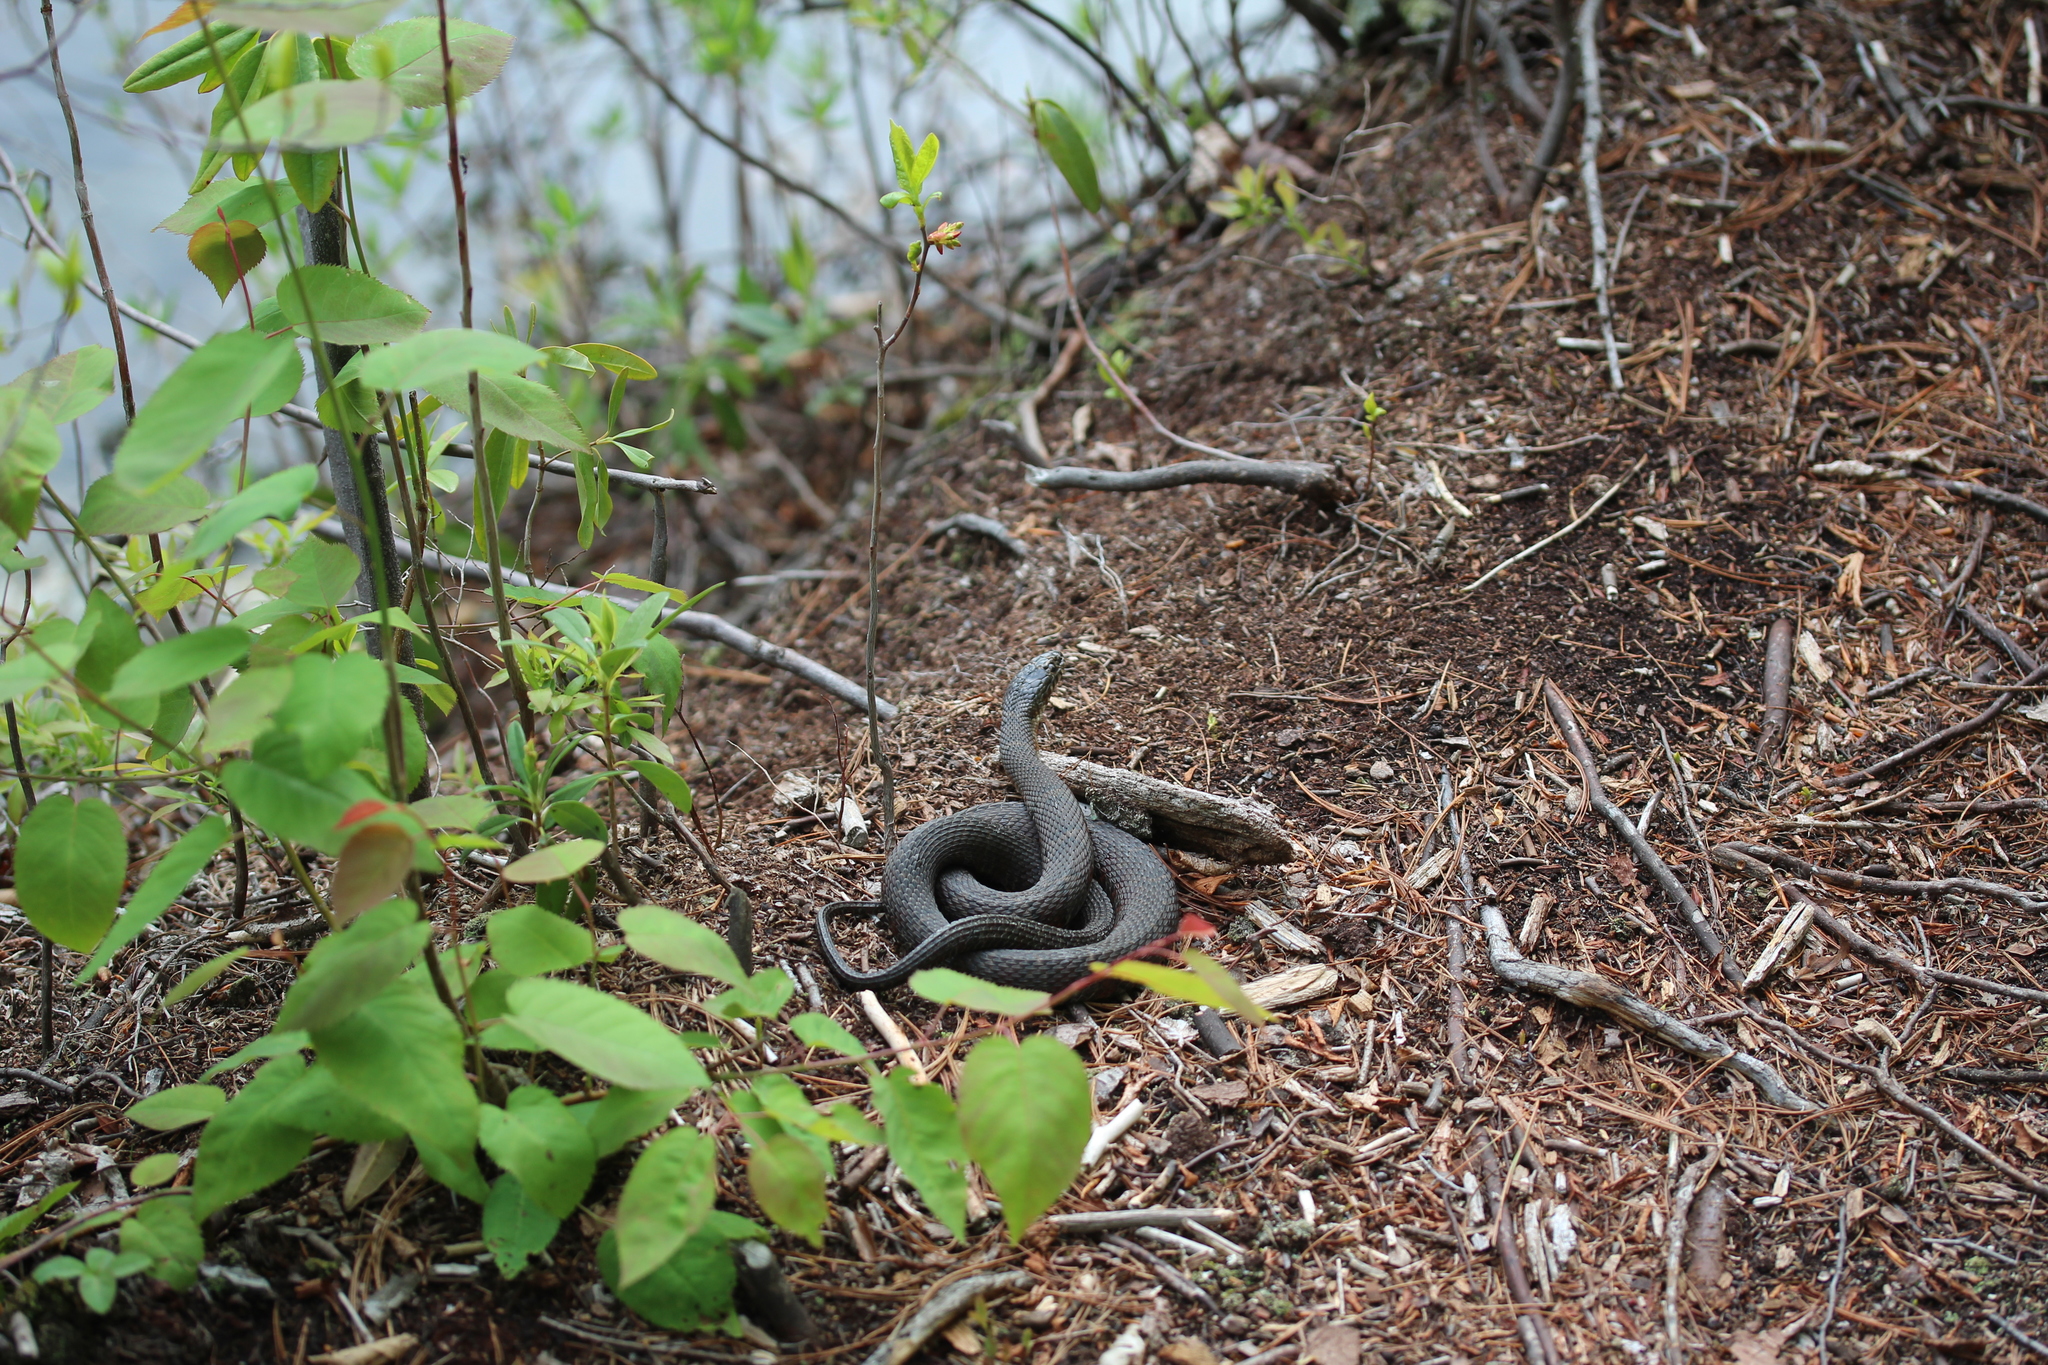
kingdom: Animalia
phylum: Chordata
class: Squamata
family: Colubridae
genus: Nerodia
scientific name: Nerodia sipedon
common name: Northern water snake
